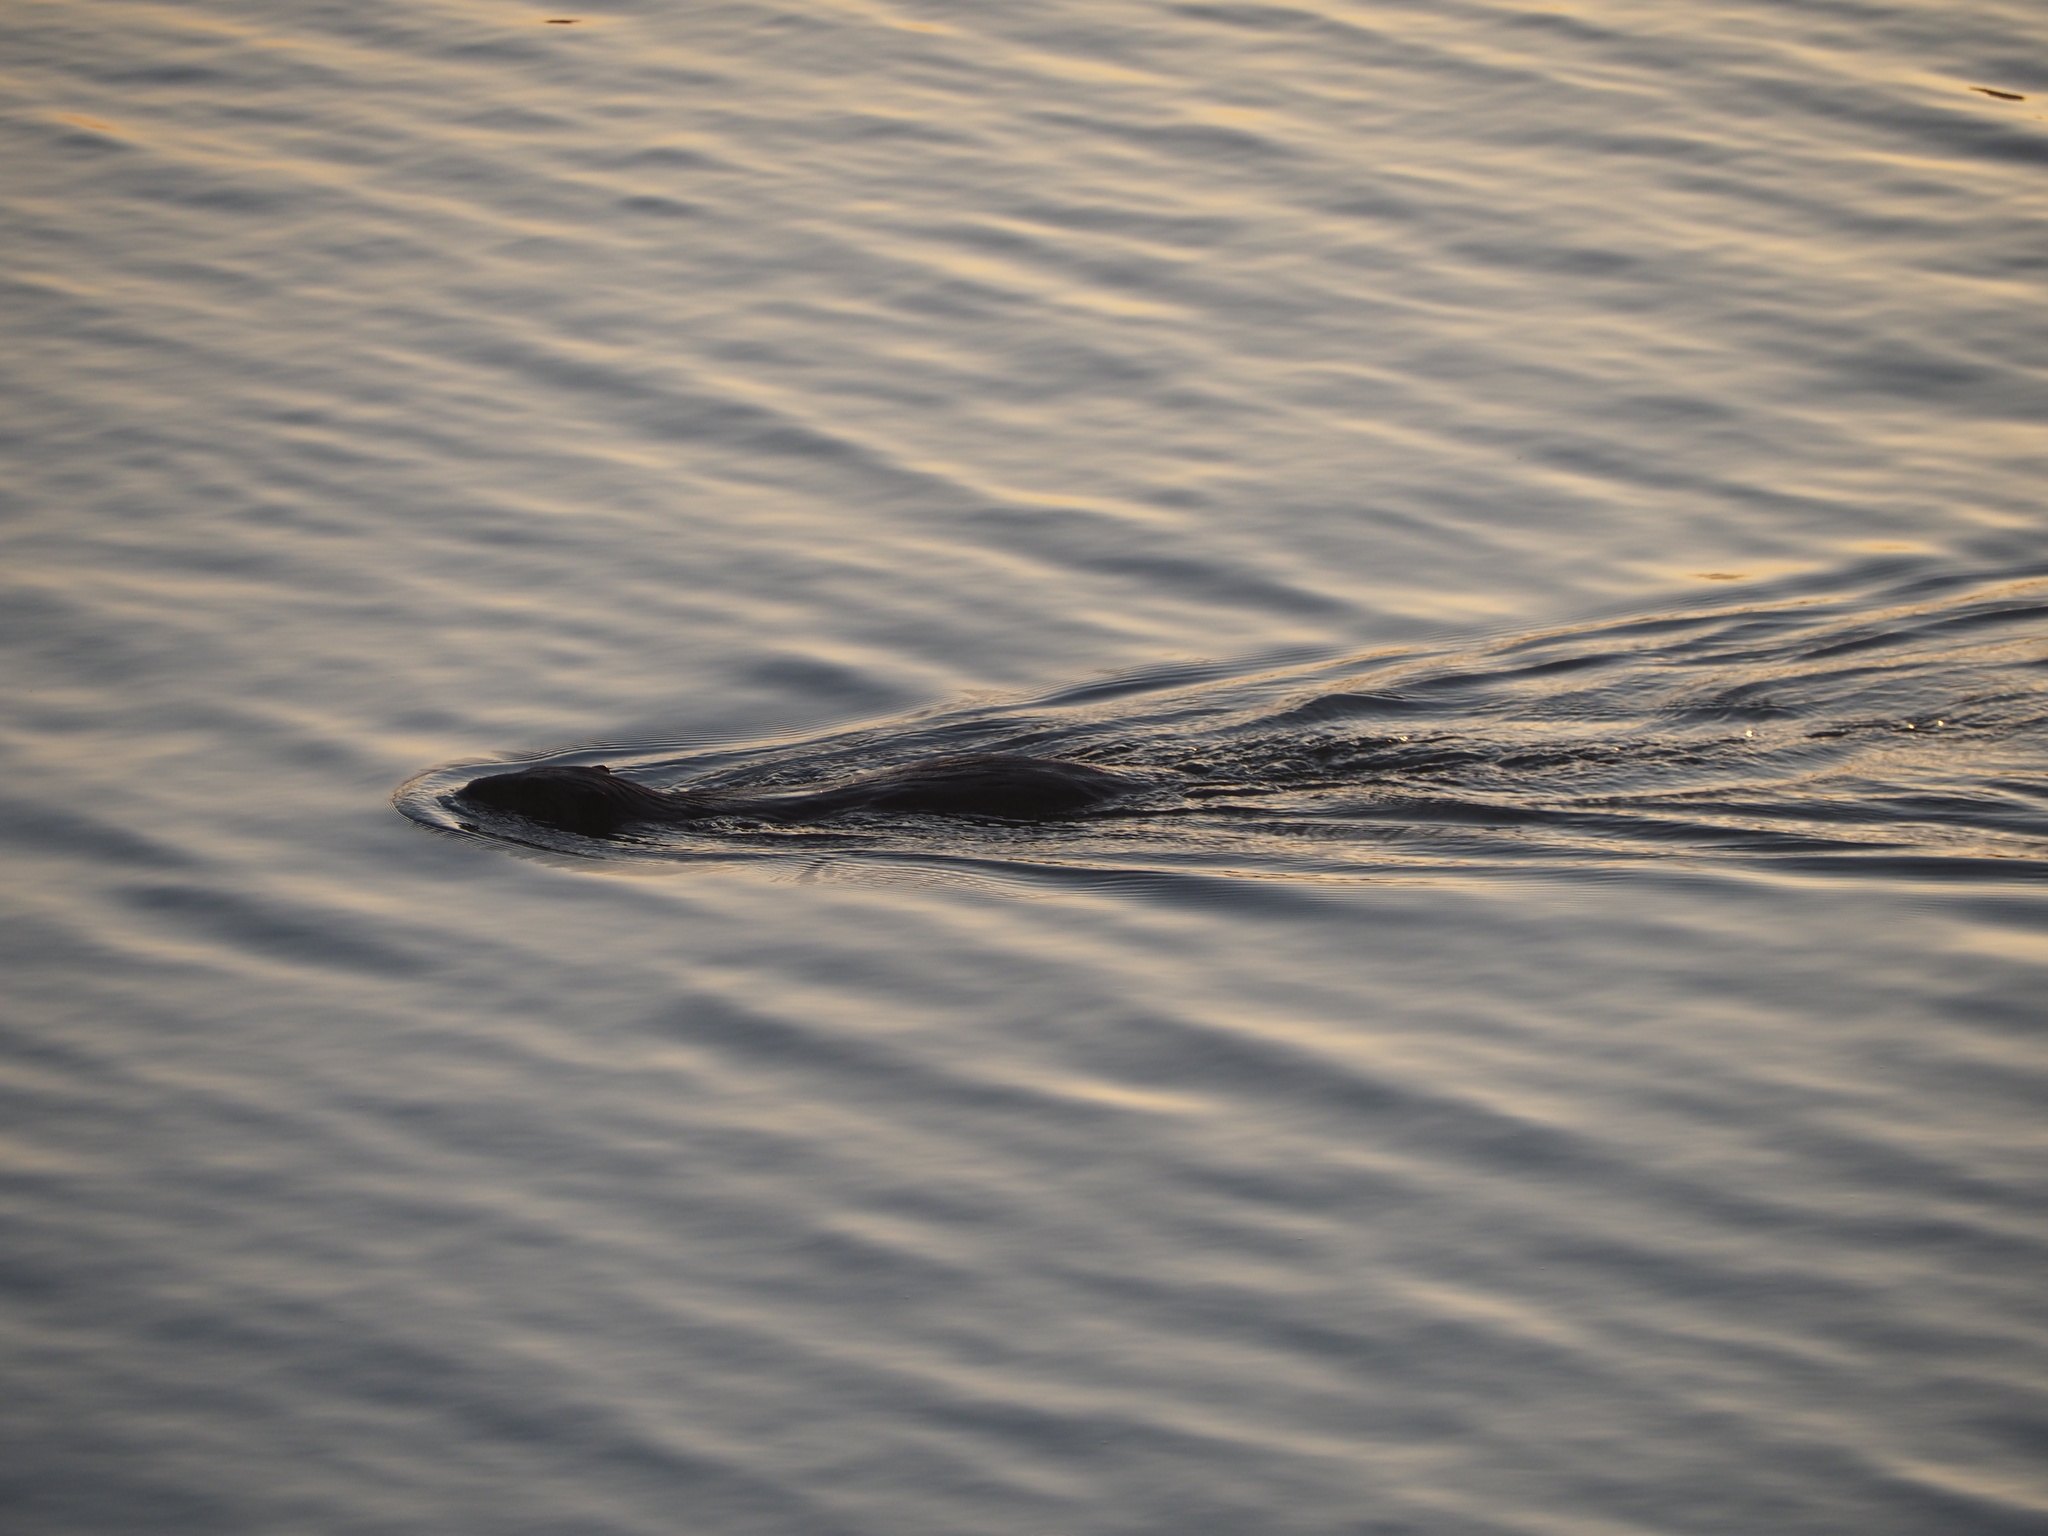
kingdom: Animalia
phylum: Chordata
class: Mammalia
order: Rodentia
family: Castoridae
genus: Castor
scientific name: Castor canadensis
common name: American beaver
